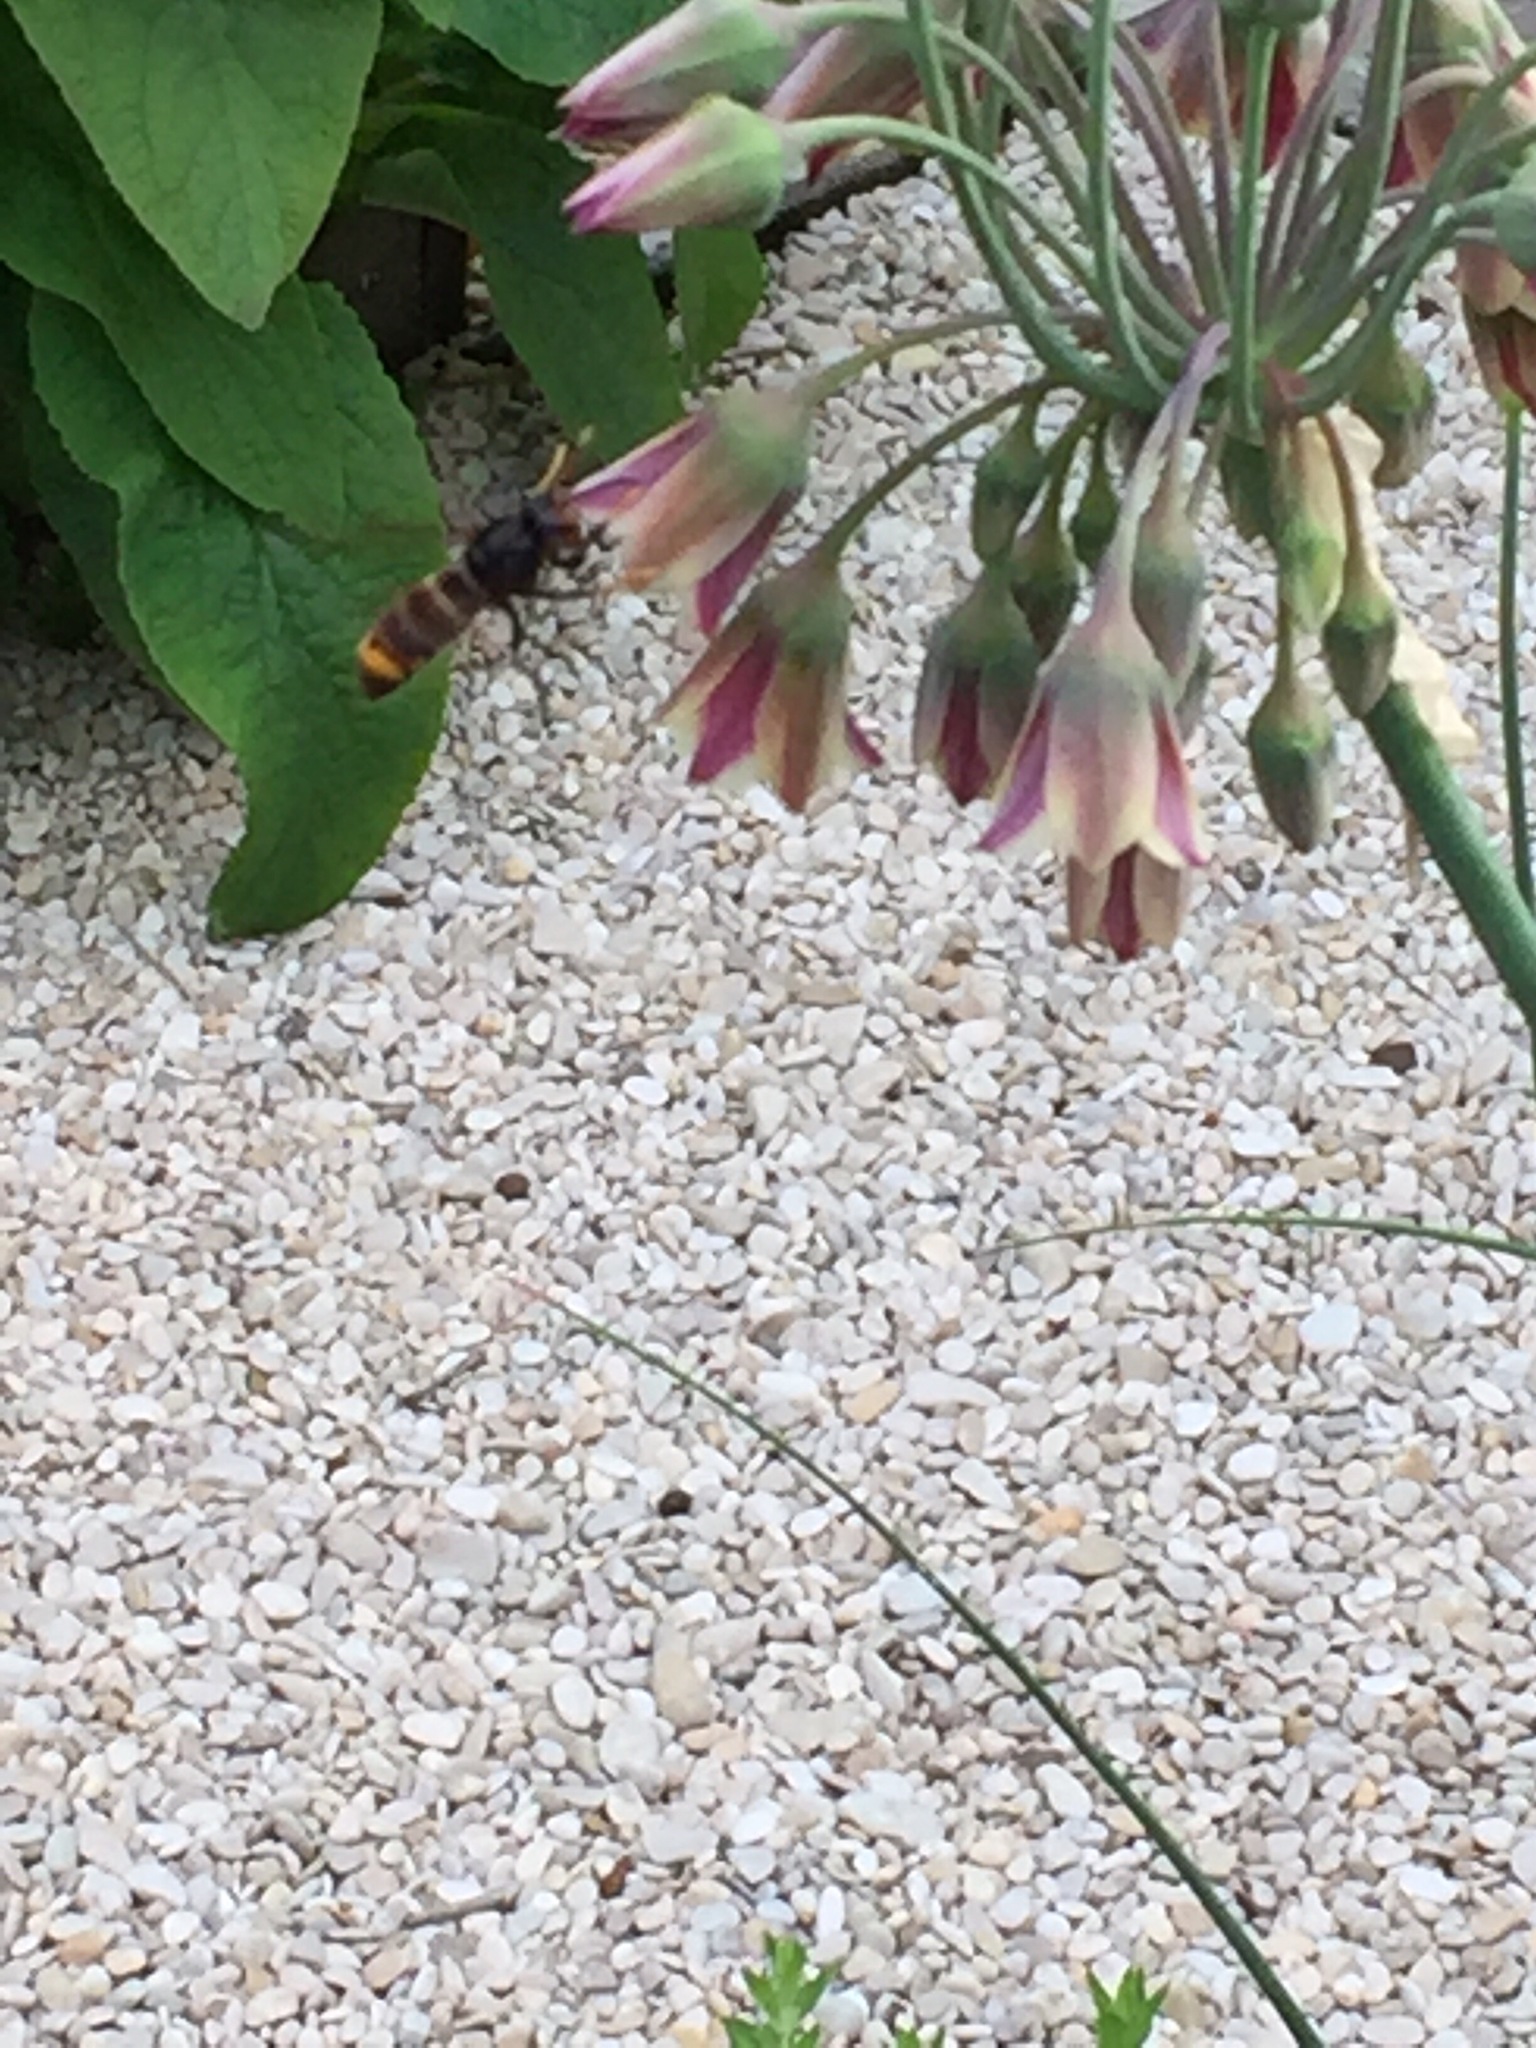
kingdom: Animalia
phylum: Arthropoda
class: Insecta
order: Hymenoptera
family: Vespidae
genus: Vespa
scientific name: Vespa velutina
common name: Asian hornet
